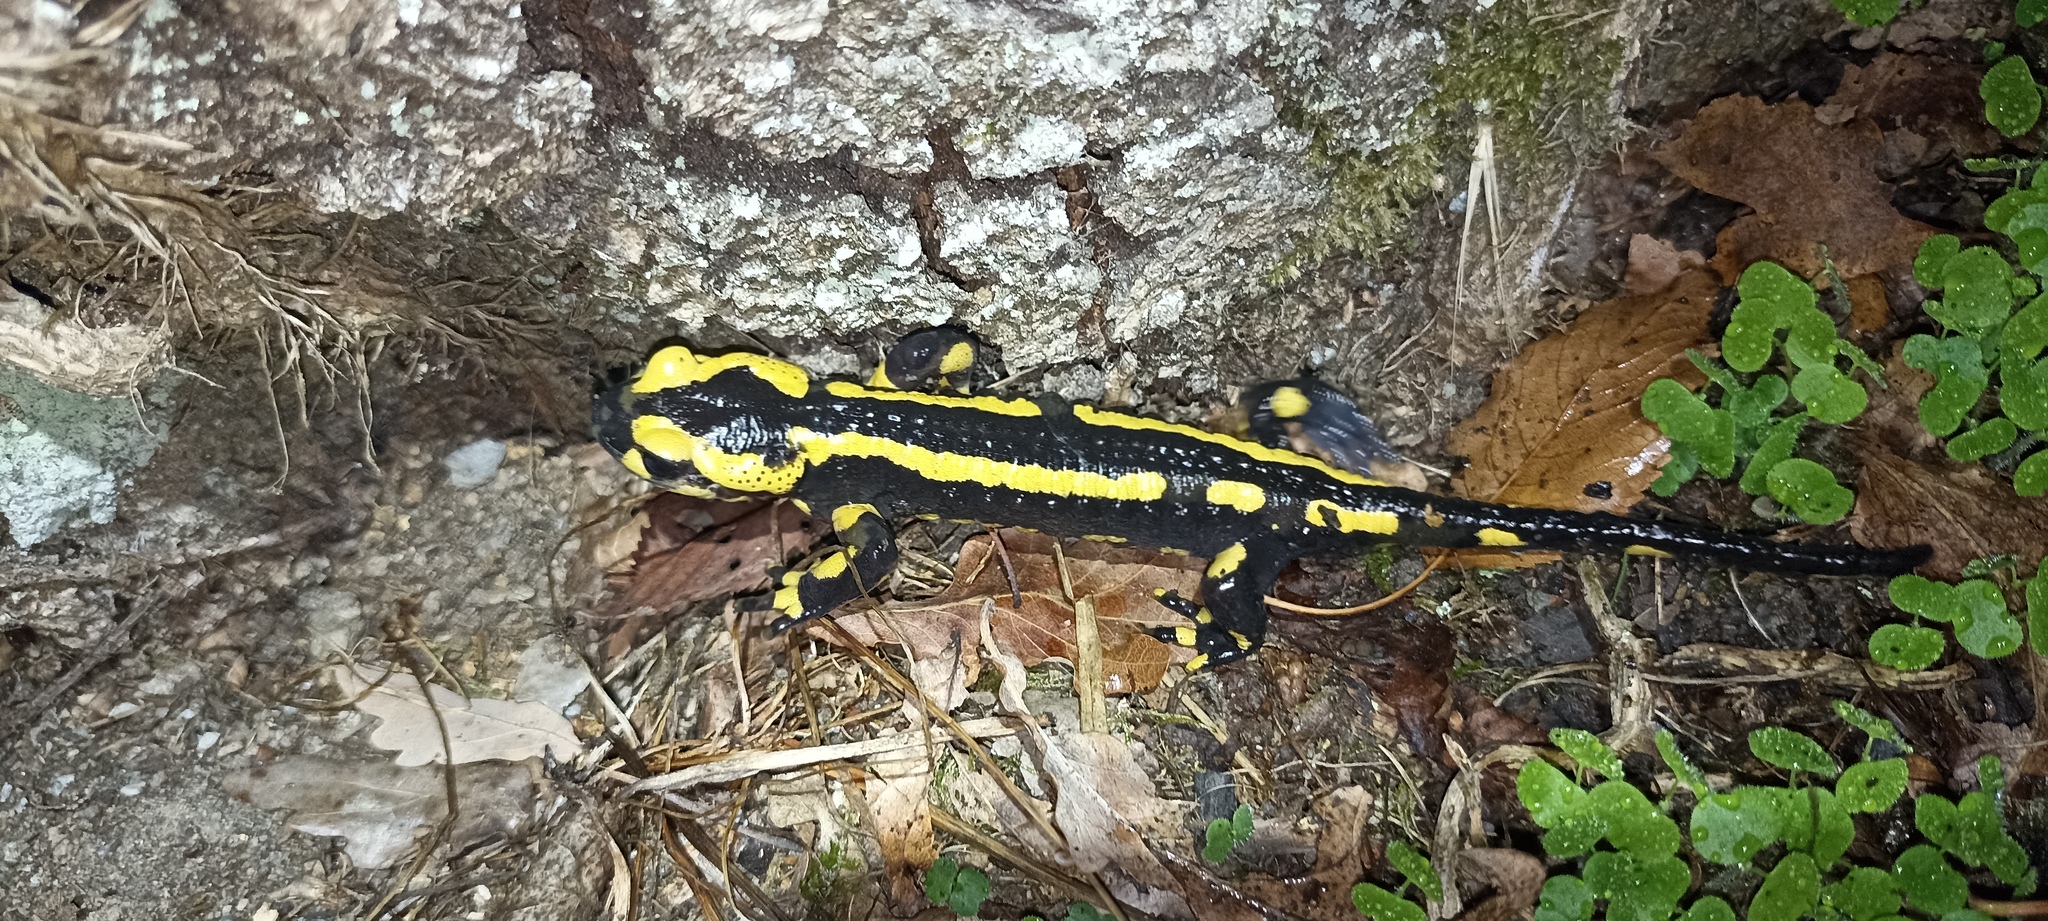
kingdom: Animalia
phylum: Chordata
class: Amphibia
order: Caudata
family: Salamandridae
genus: Salamandra
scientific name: Salamandra salamandra
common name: Fire salamander
